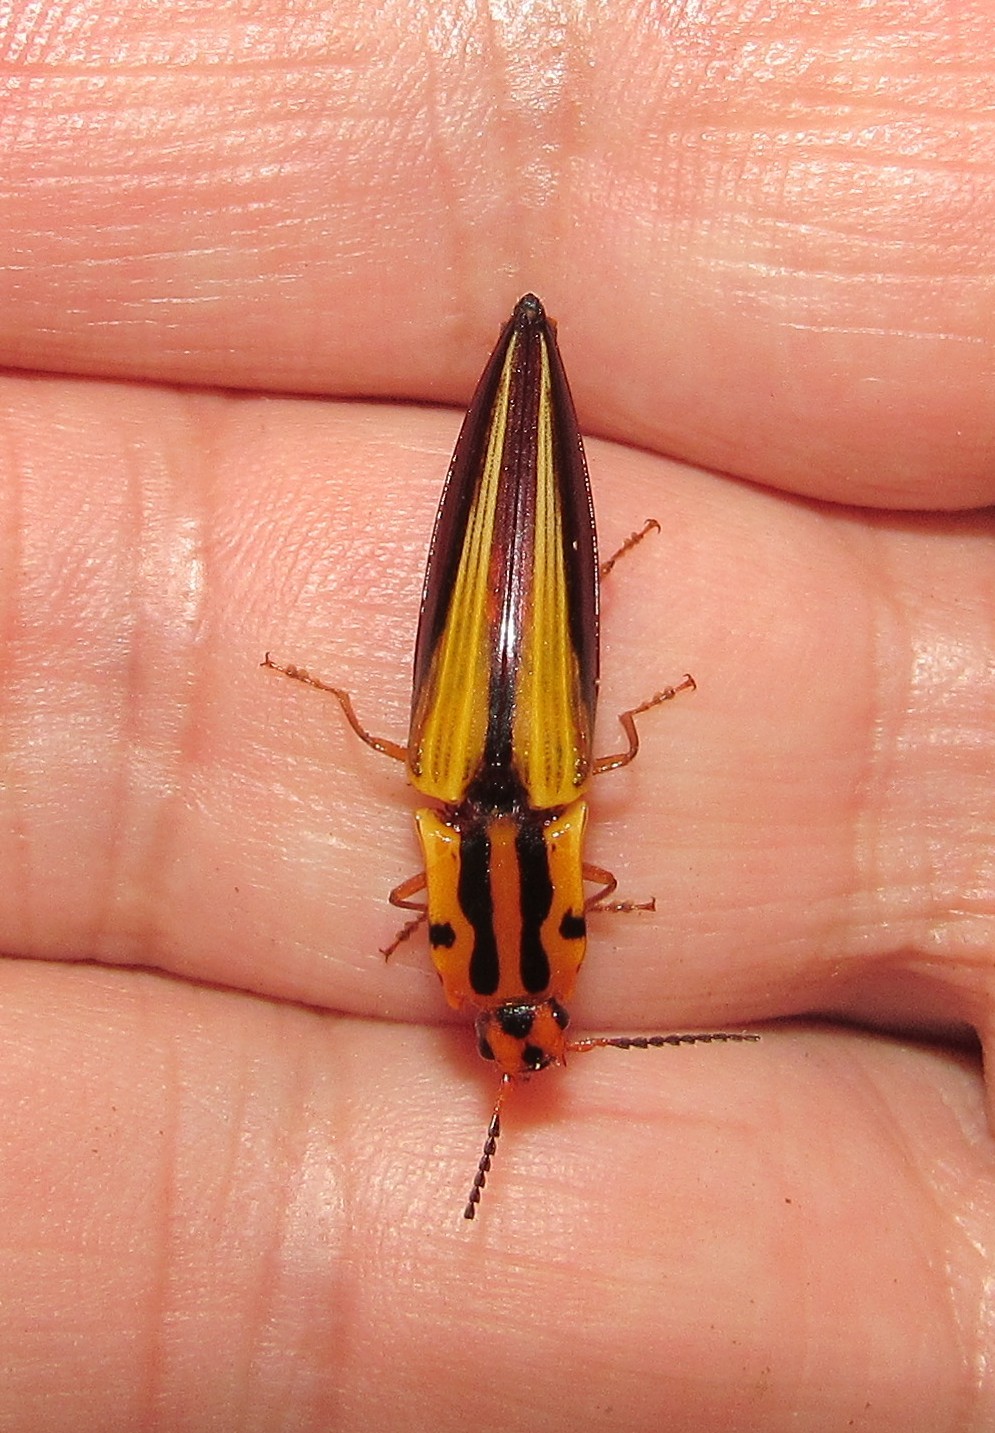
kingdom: Animalia
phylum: Arthropoda
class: Insecta
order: Coleoptera
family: Elateridae
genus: Semiotus
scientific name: Semiotus intermedius
